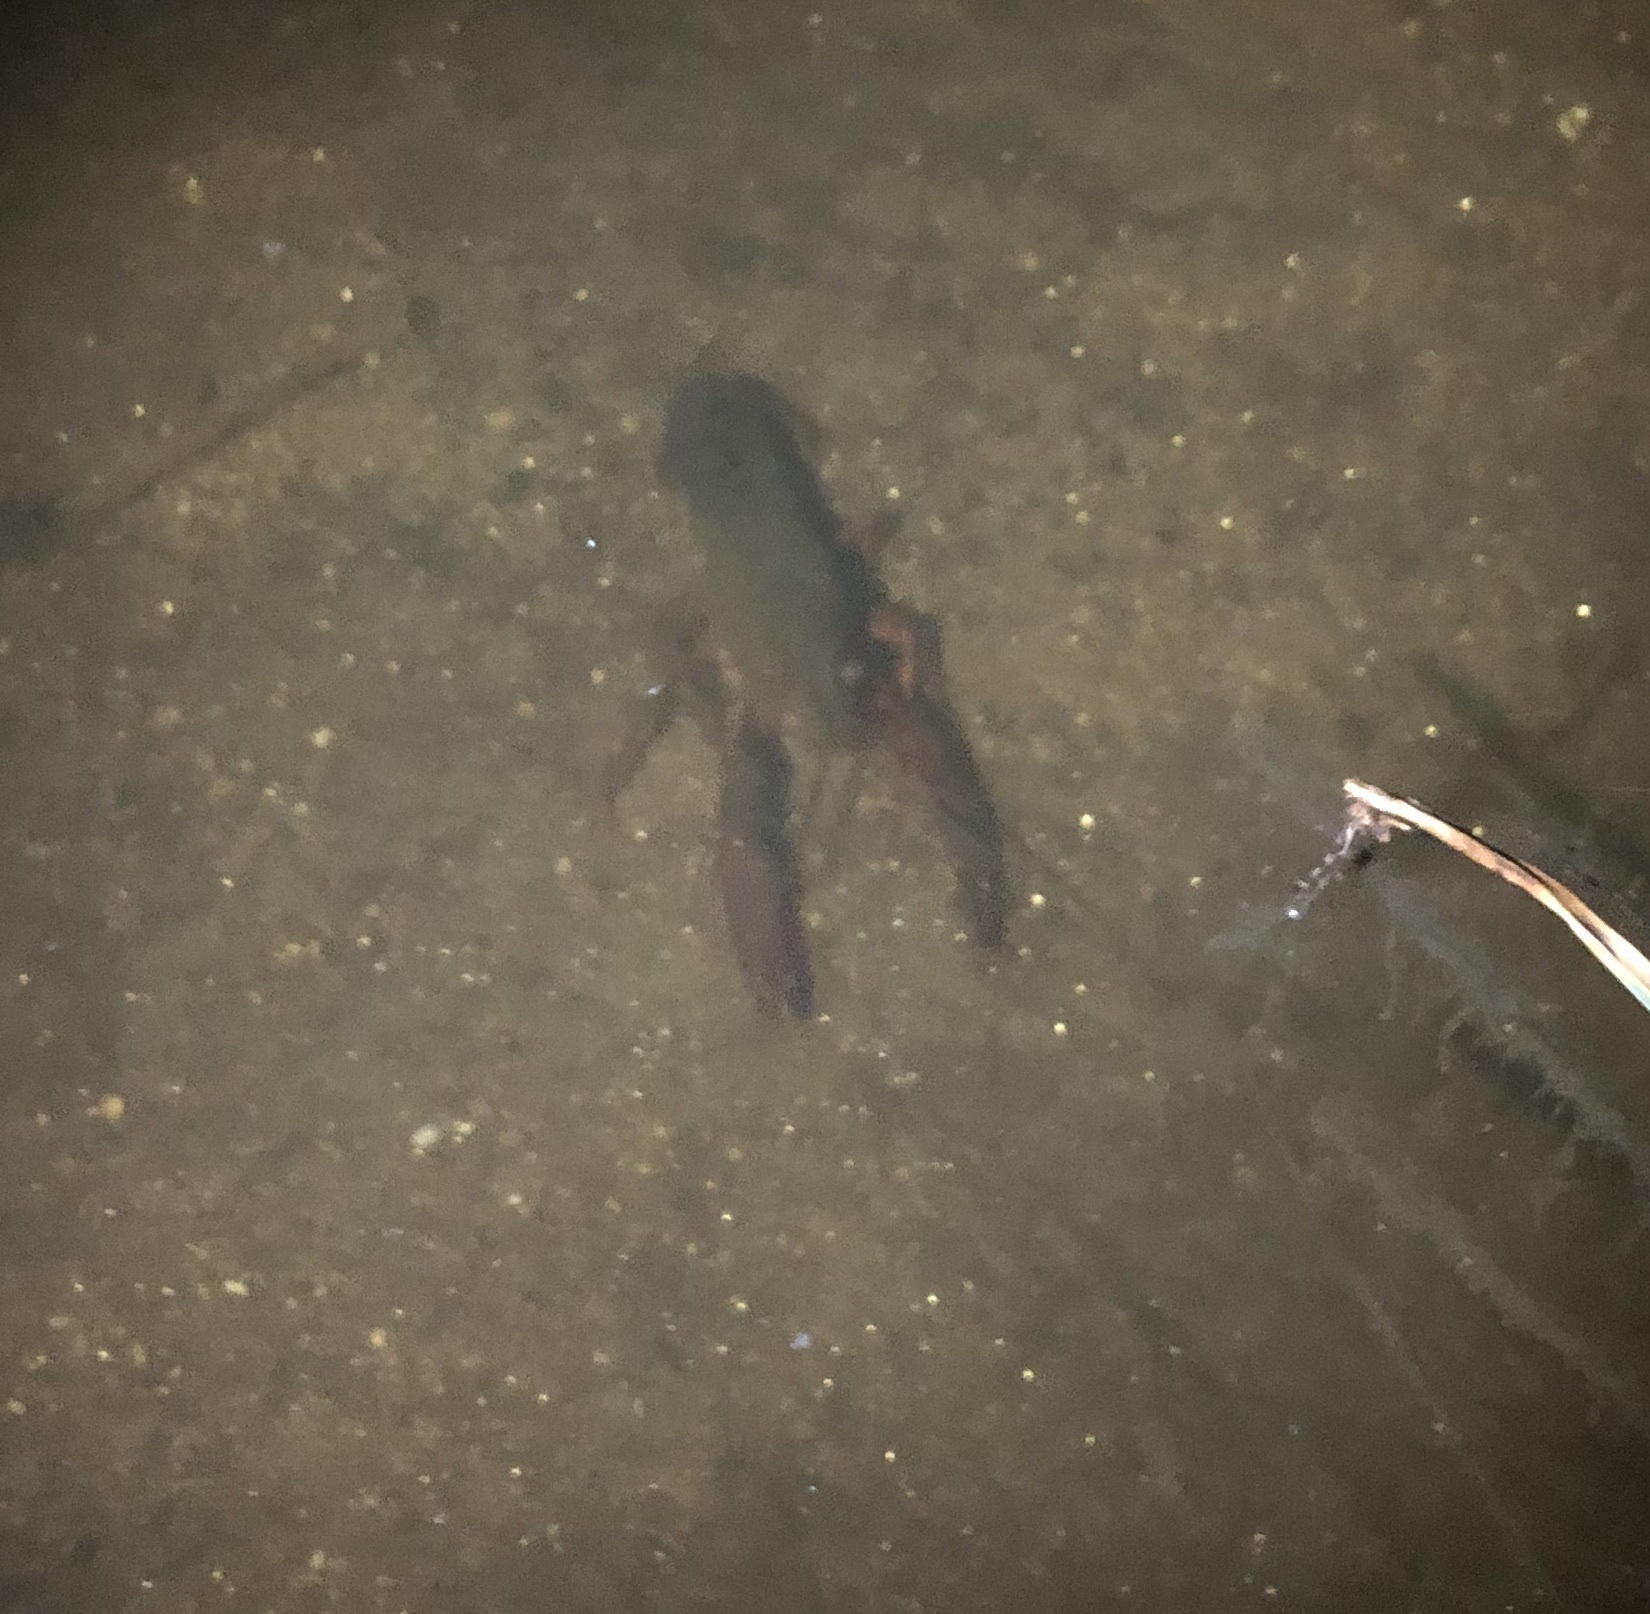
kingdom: Animalia
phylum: Arthropoda
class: Malacostraca
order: Decapoda
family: Cambaridae
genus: Procambarus
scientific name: Procambarus clarkii
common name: Red swamp crayfish
